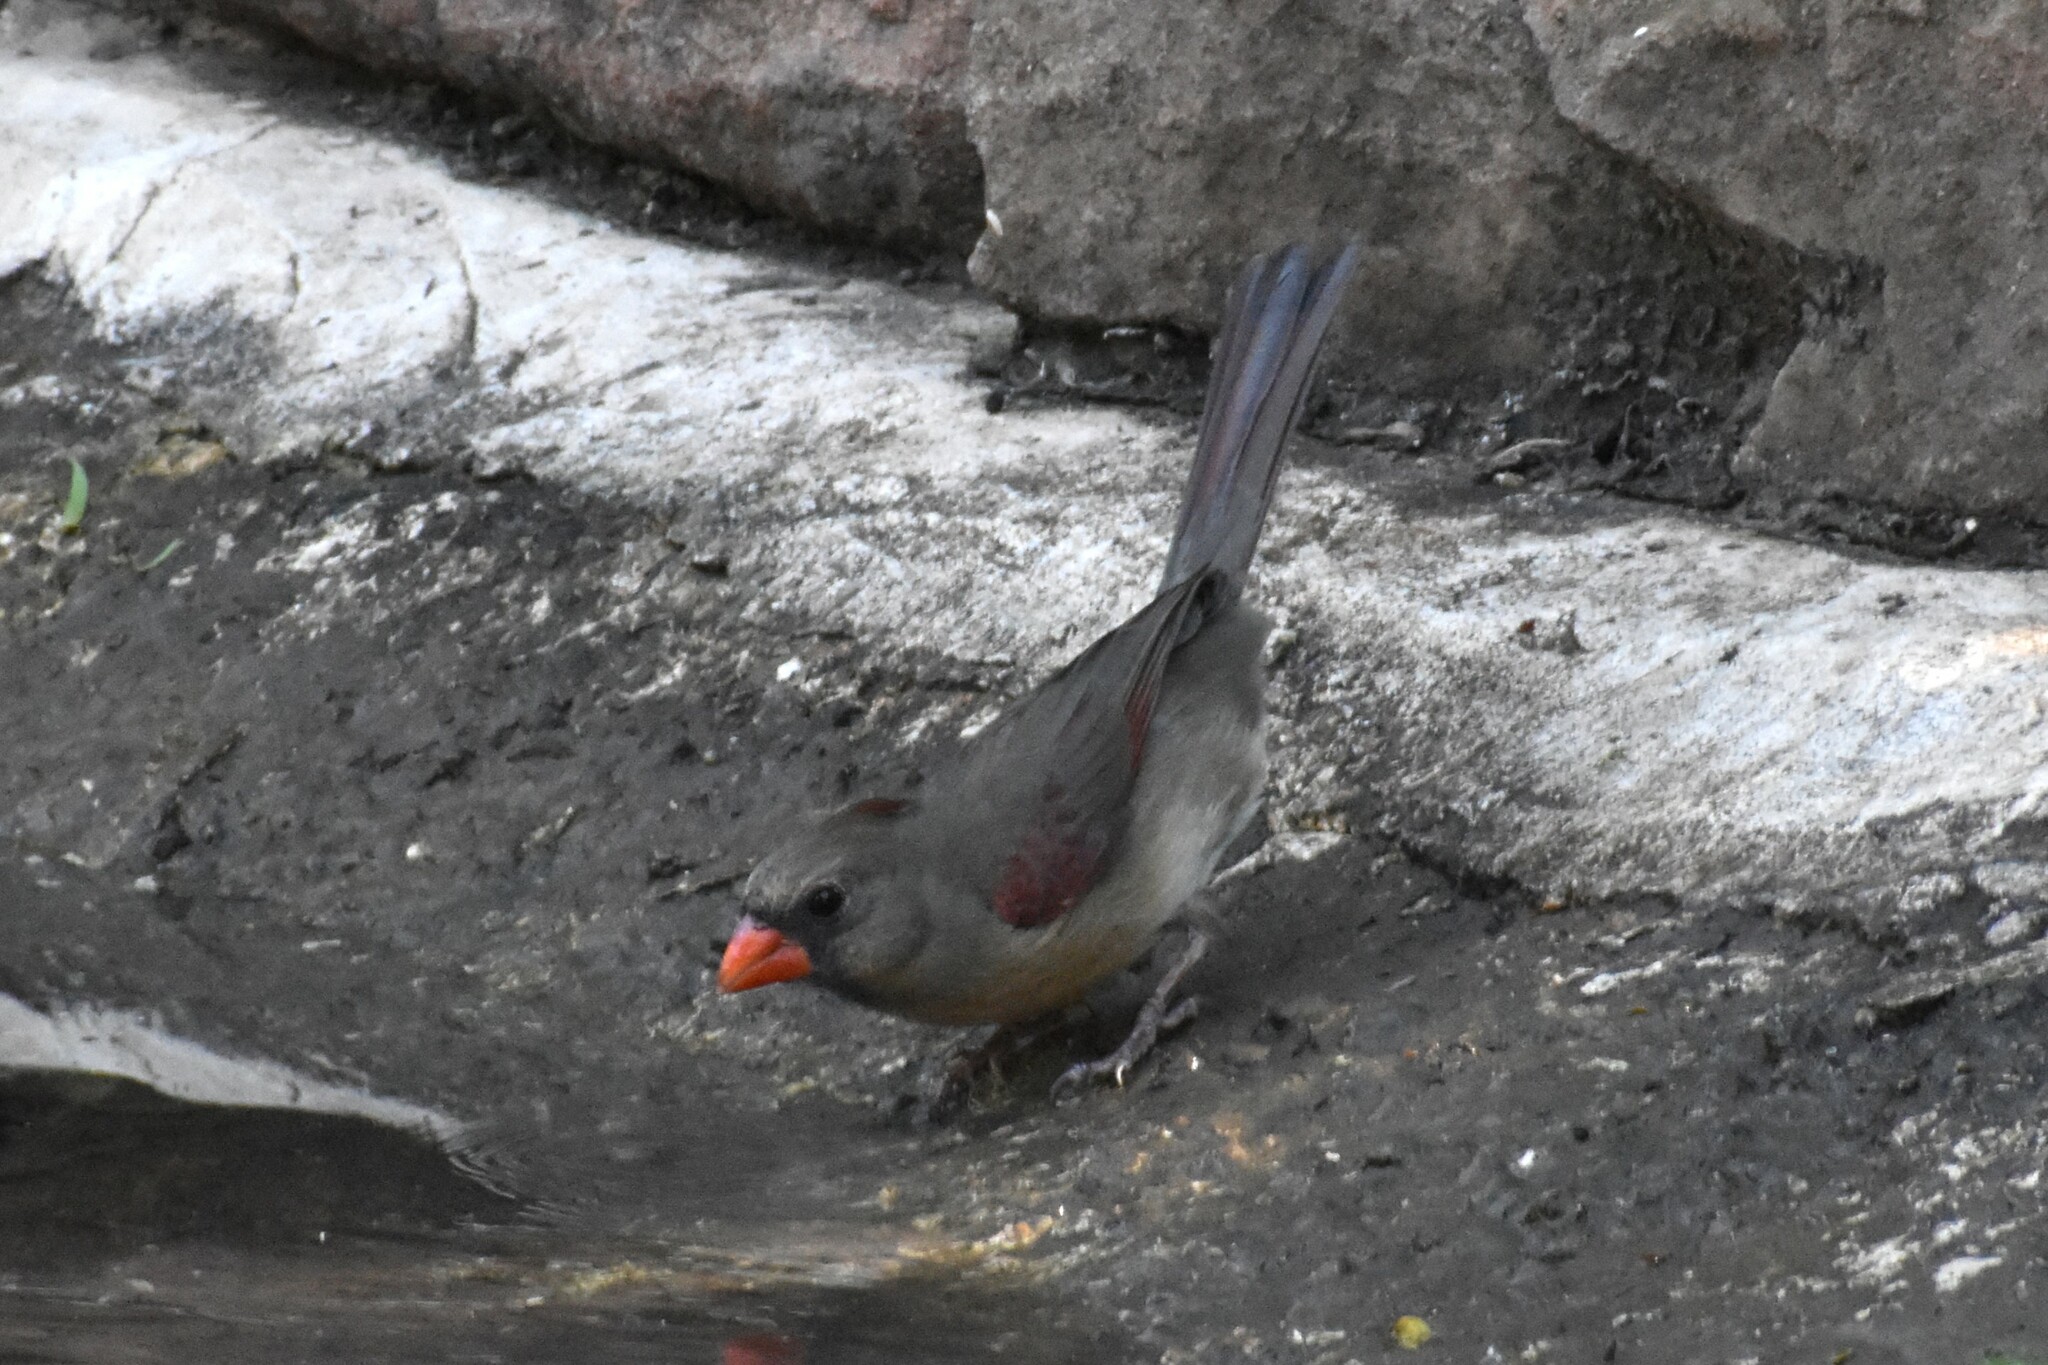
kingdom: Animalia
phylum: Chordata
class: Aves
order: Passeriformes
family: Cardinalidae
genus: Cardinalis
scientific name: Cardinalis cardinalis
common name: Northern cardinal
